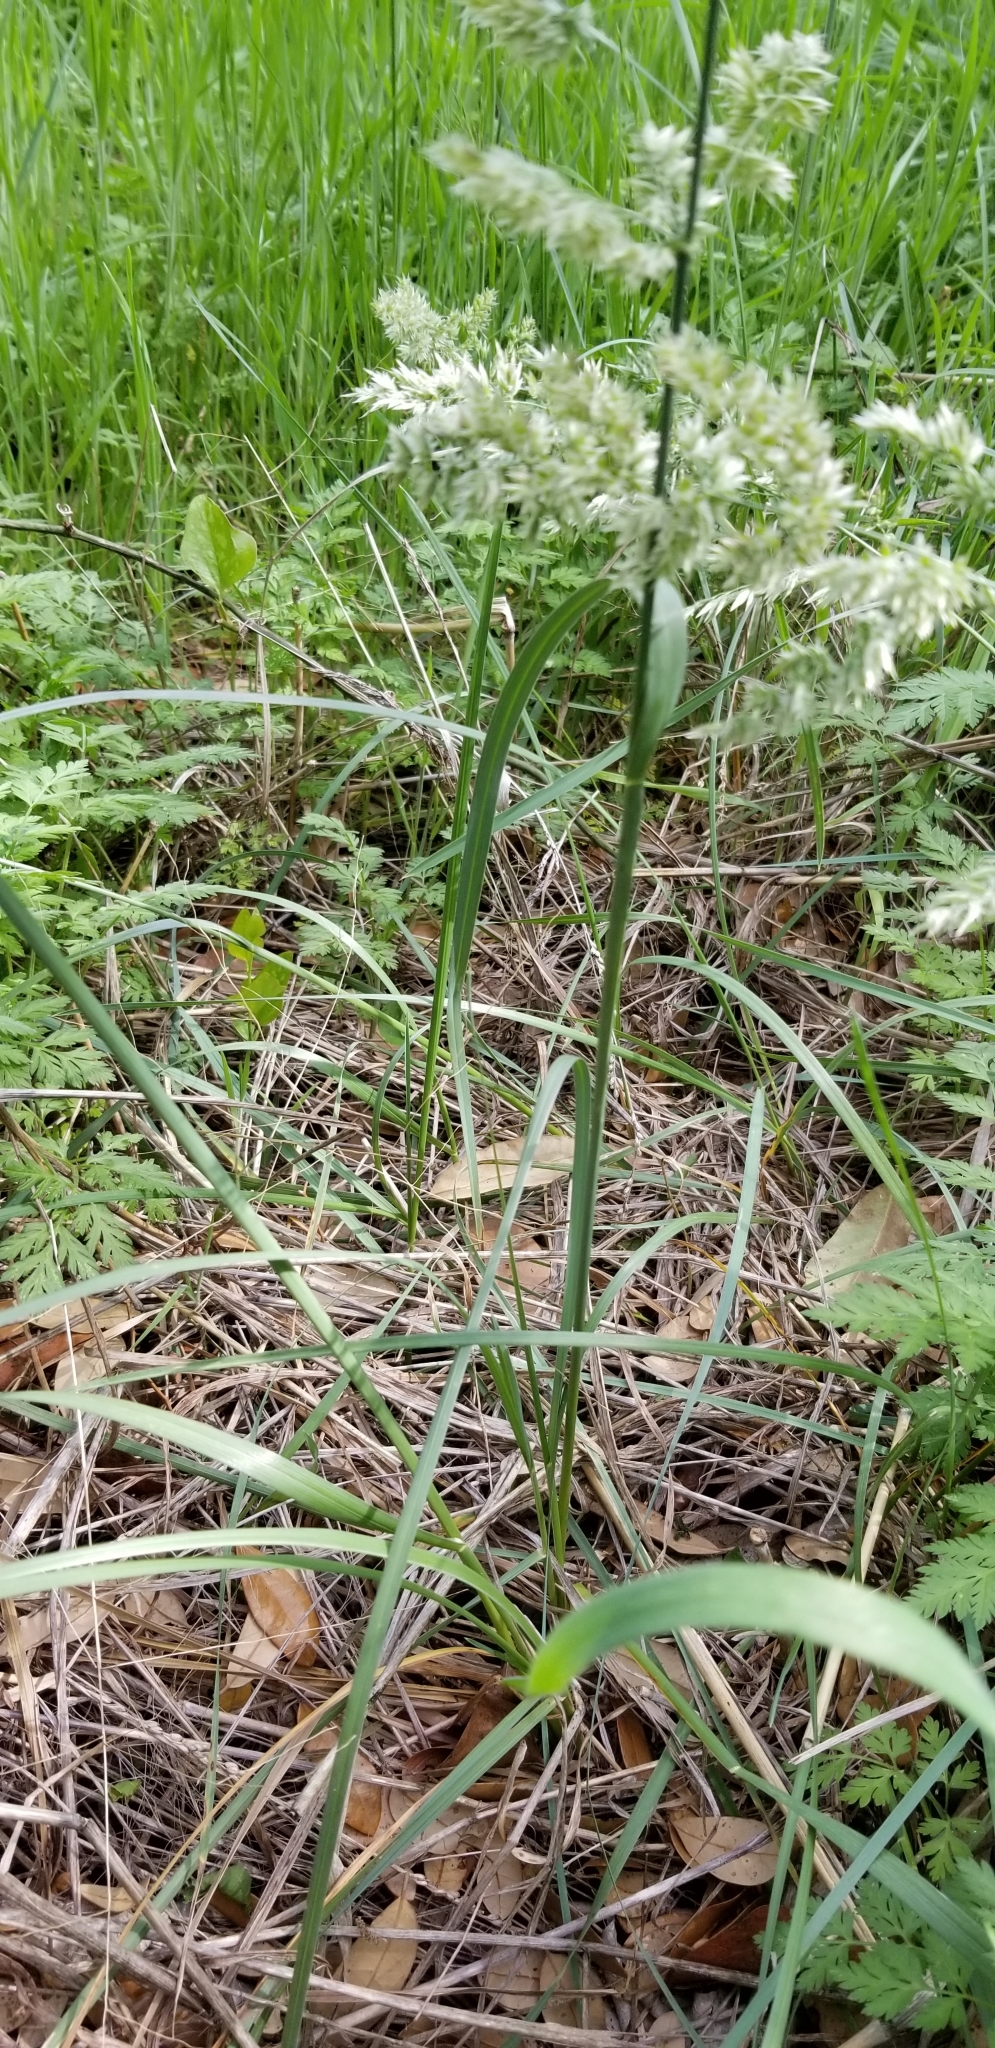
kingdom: Plantae
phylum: Tracheophyta
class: Liliopsida
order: Poales
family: Poaceae
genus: Poa
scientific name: Poa arachnifera
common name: Texas bluegrass
